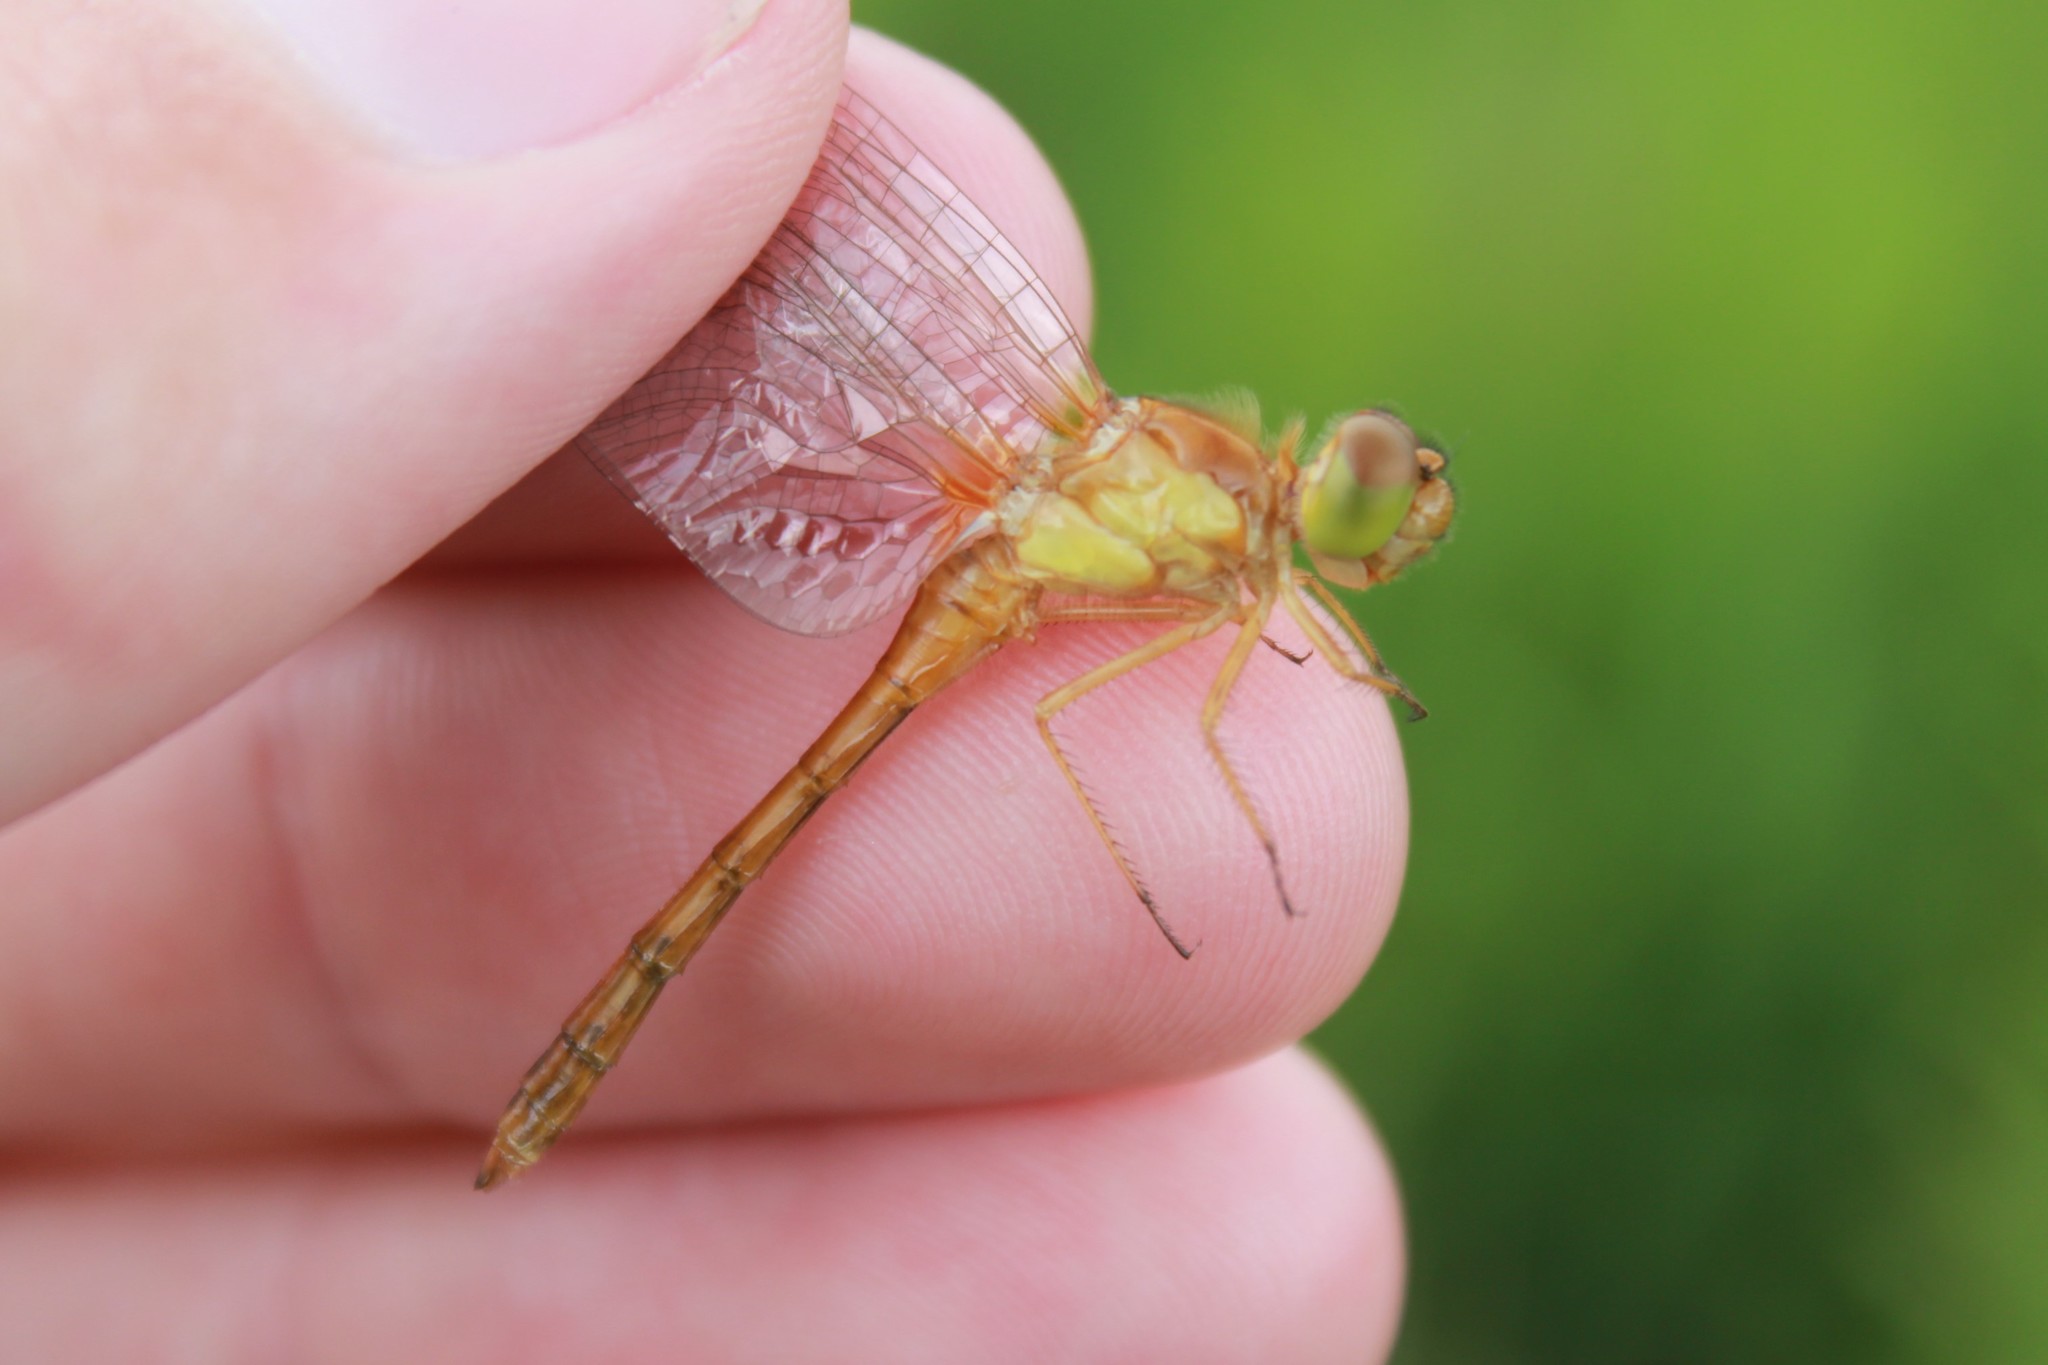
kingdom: Animalia
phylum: Arthropoda
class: Insecta
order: Odonata
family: Libellulidae
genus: Sympetrum
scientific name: Sympetrum vicinum
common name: Autumn meadowhawk
